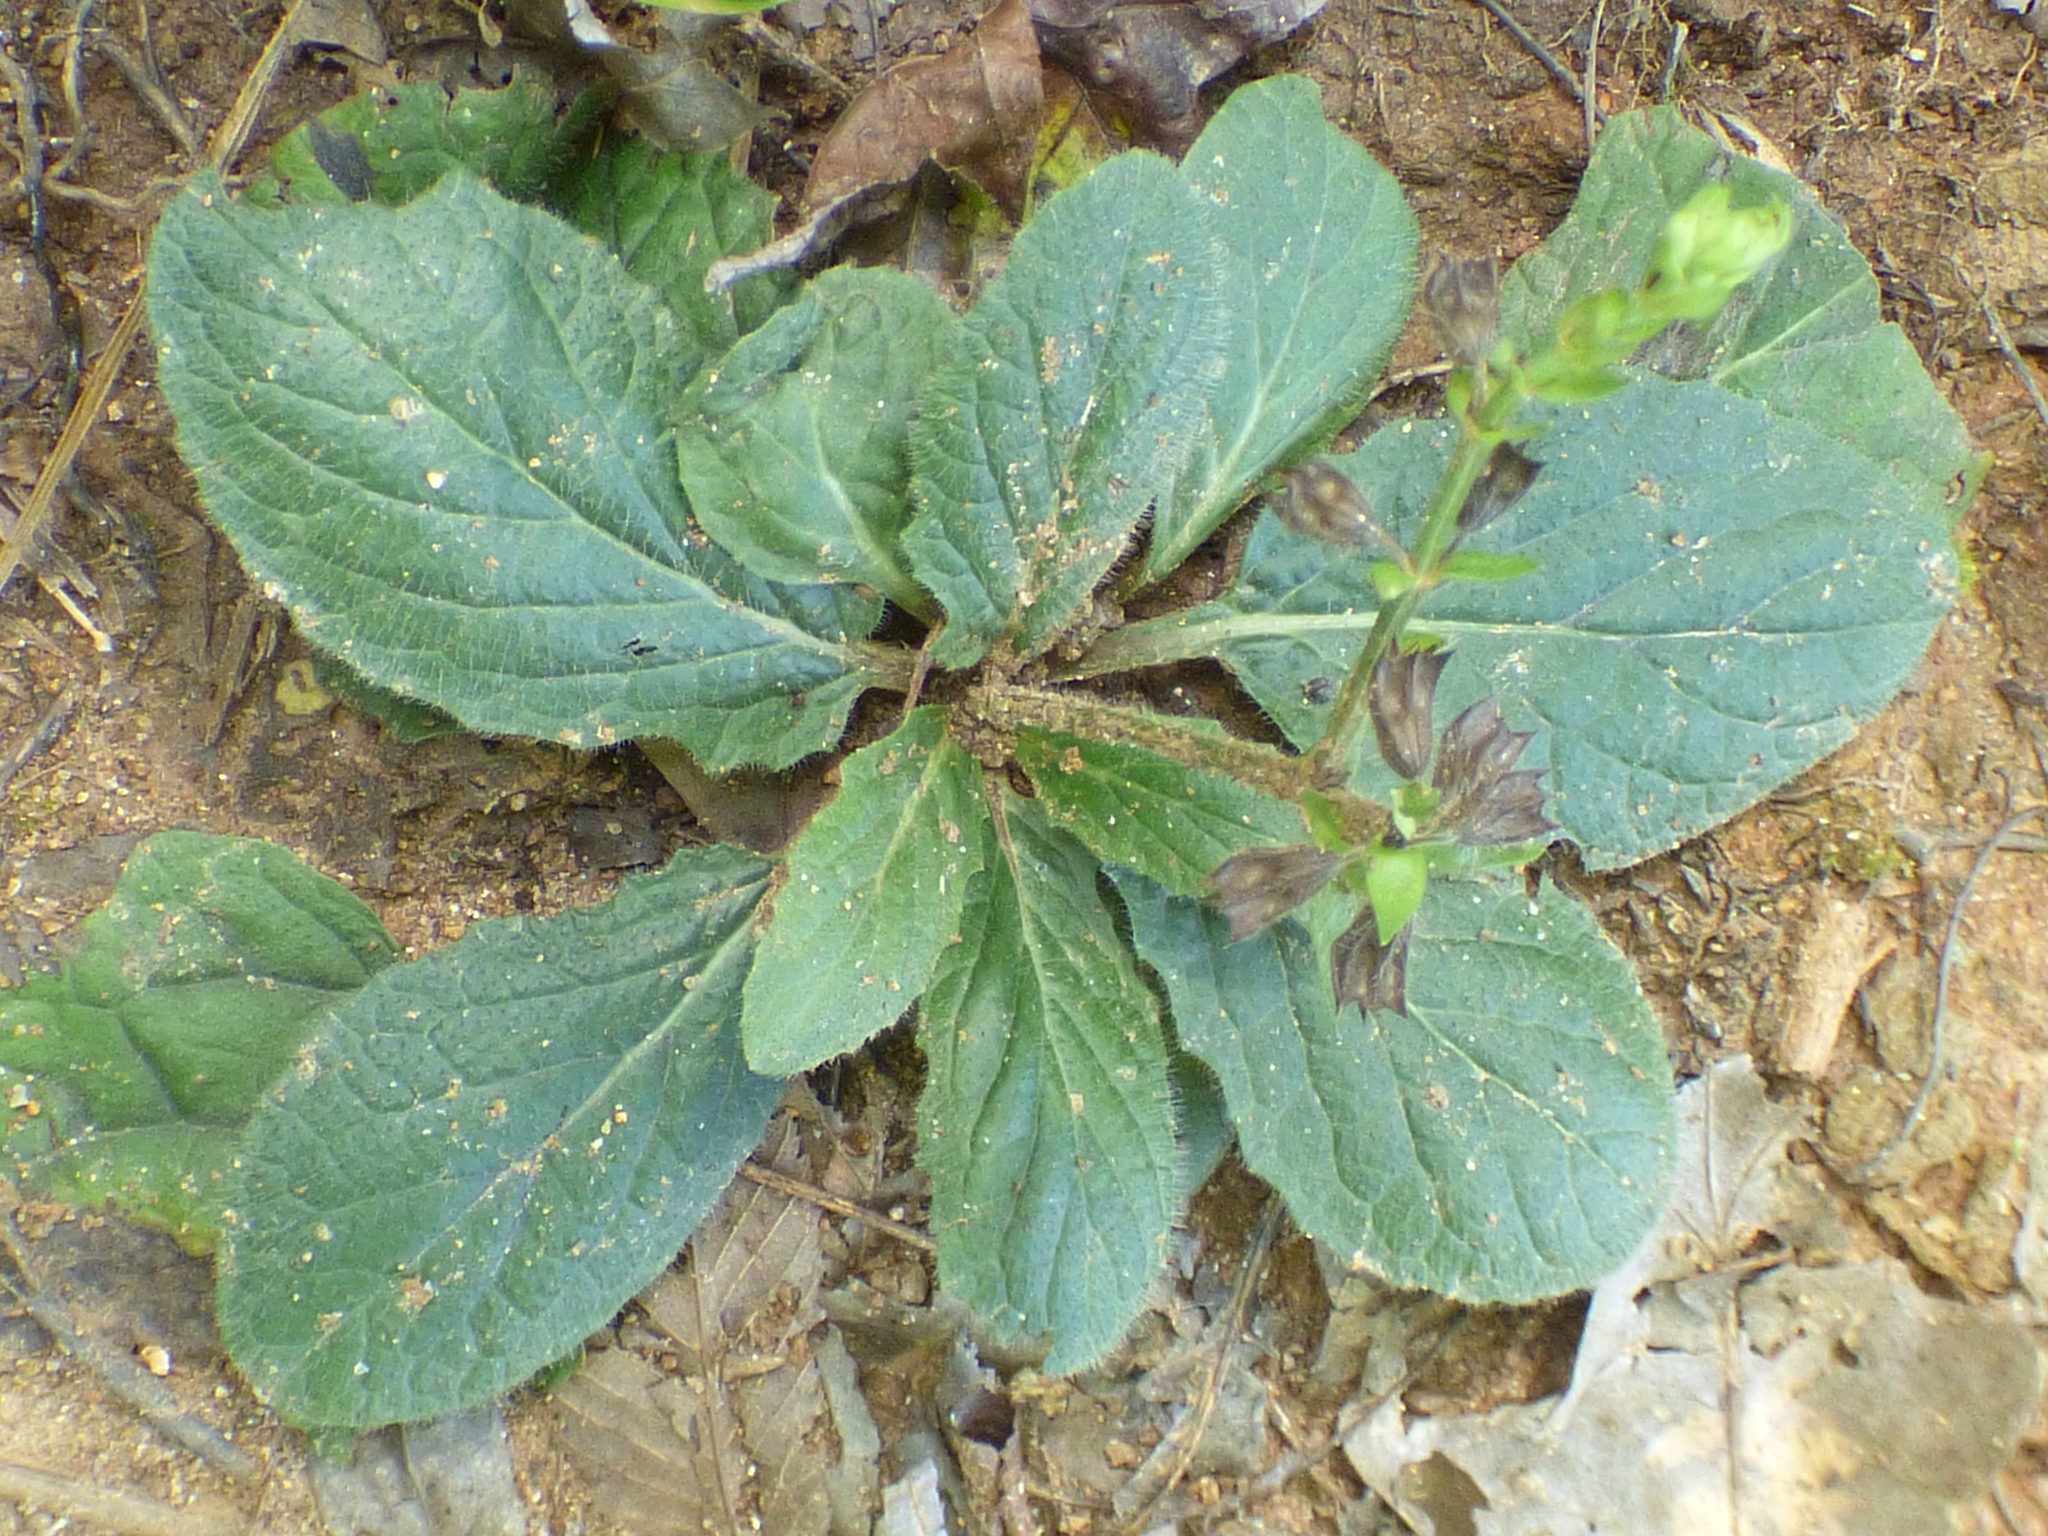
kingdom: Plantae
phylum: Tracheophyta
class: Magnoliopsida
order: Lamiales
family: Lamiaceae
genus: Salvia
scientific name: Salvia lyrata
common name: Cancerweed
